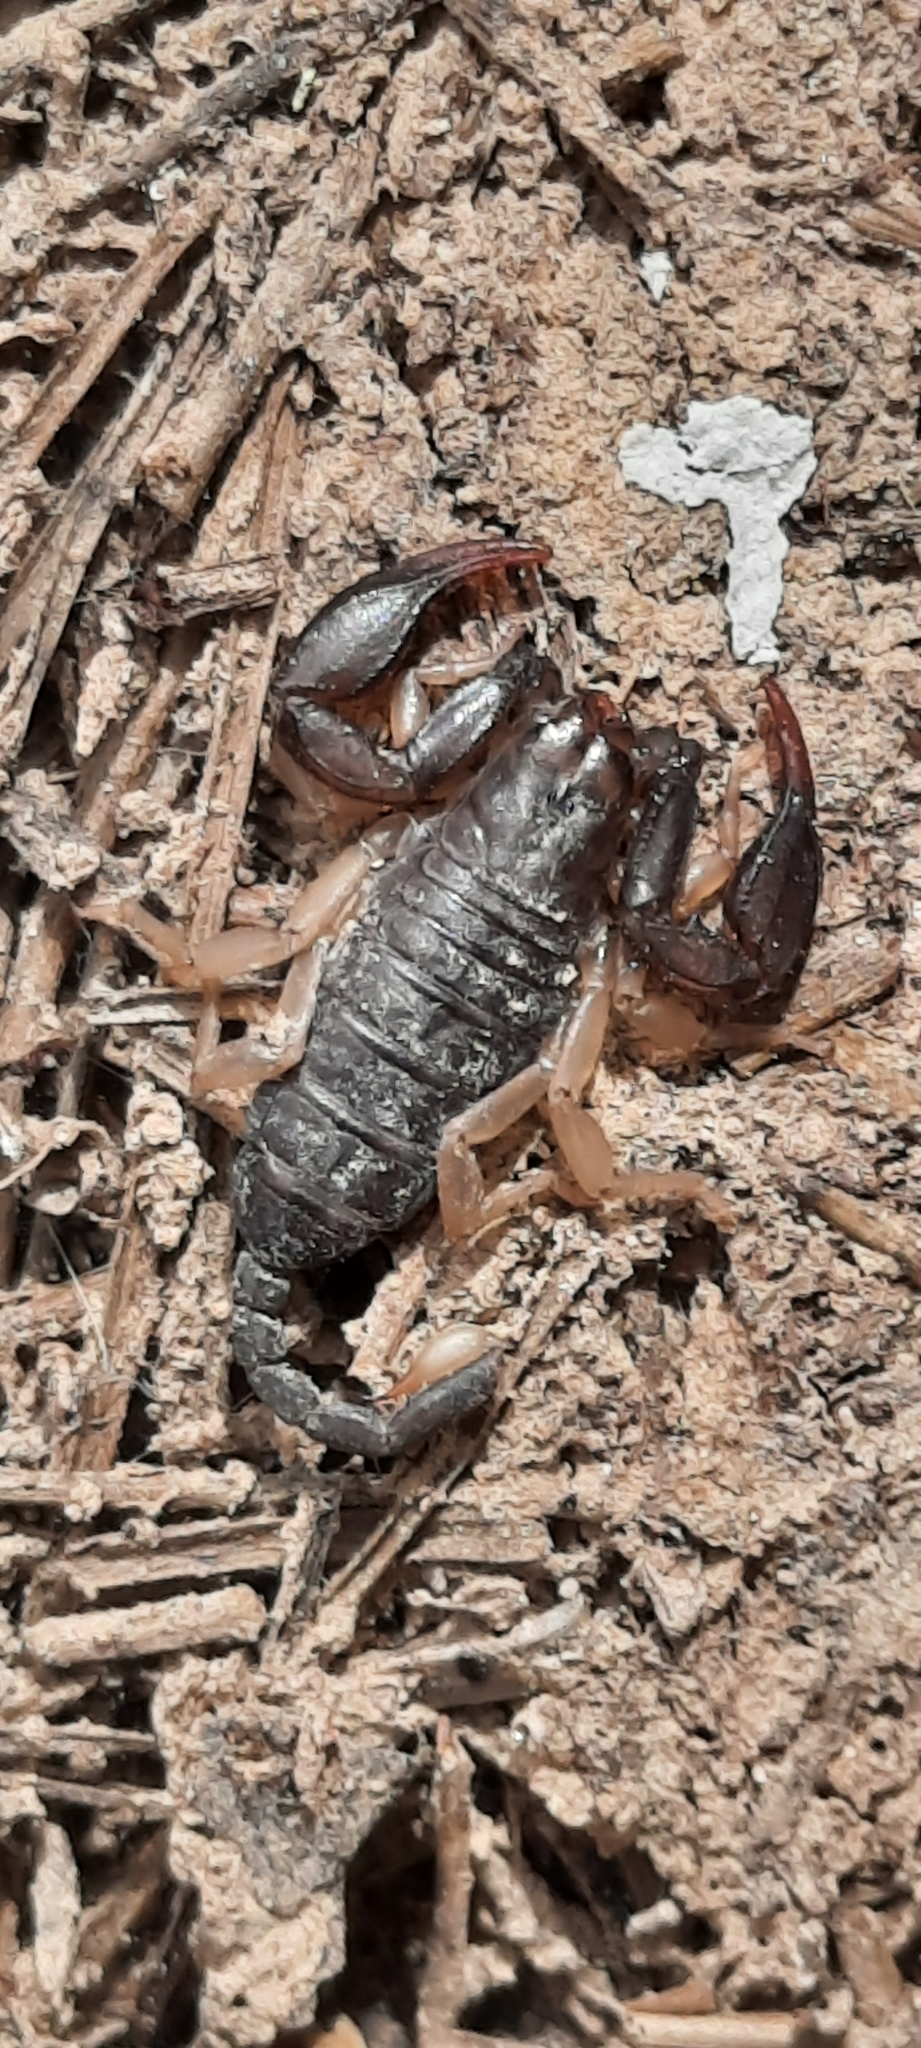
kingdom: Animalia
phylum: Arthropoda
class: Arachnida
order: Scorpiones
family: Euscorpiidae
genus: Euscorpius
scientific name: Euscorpius
